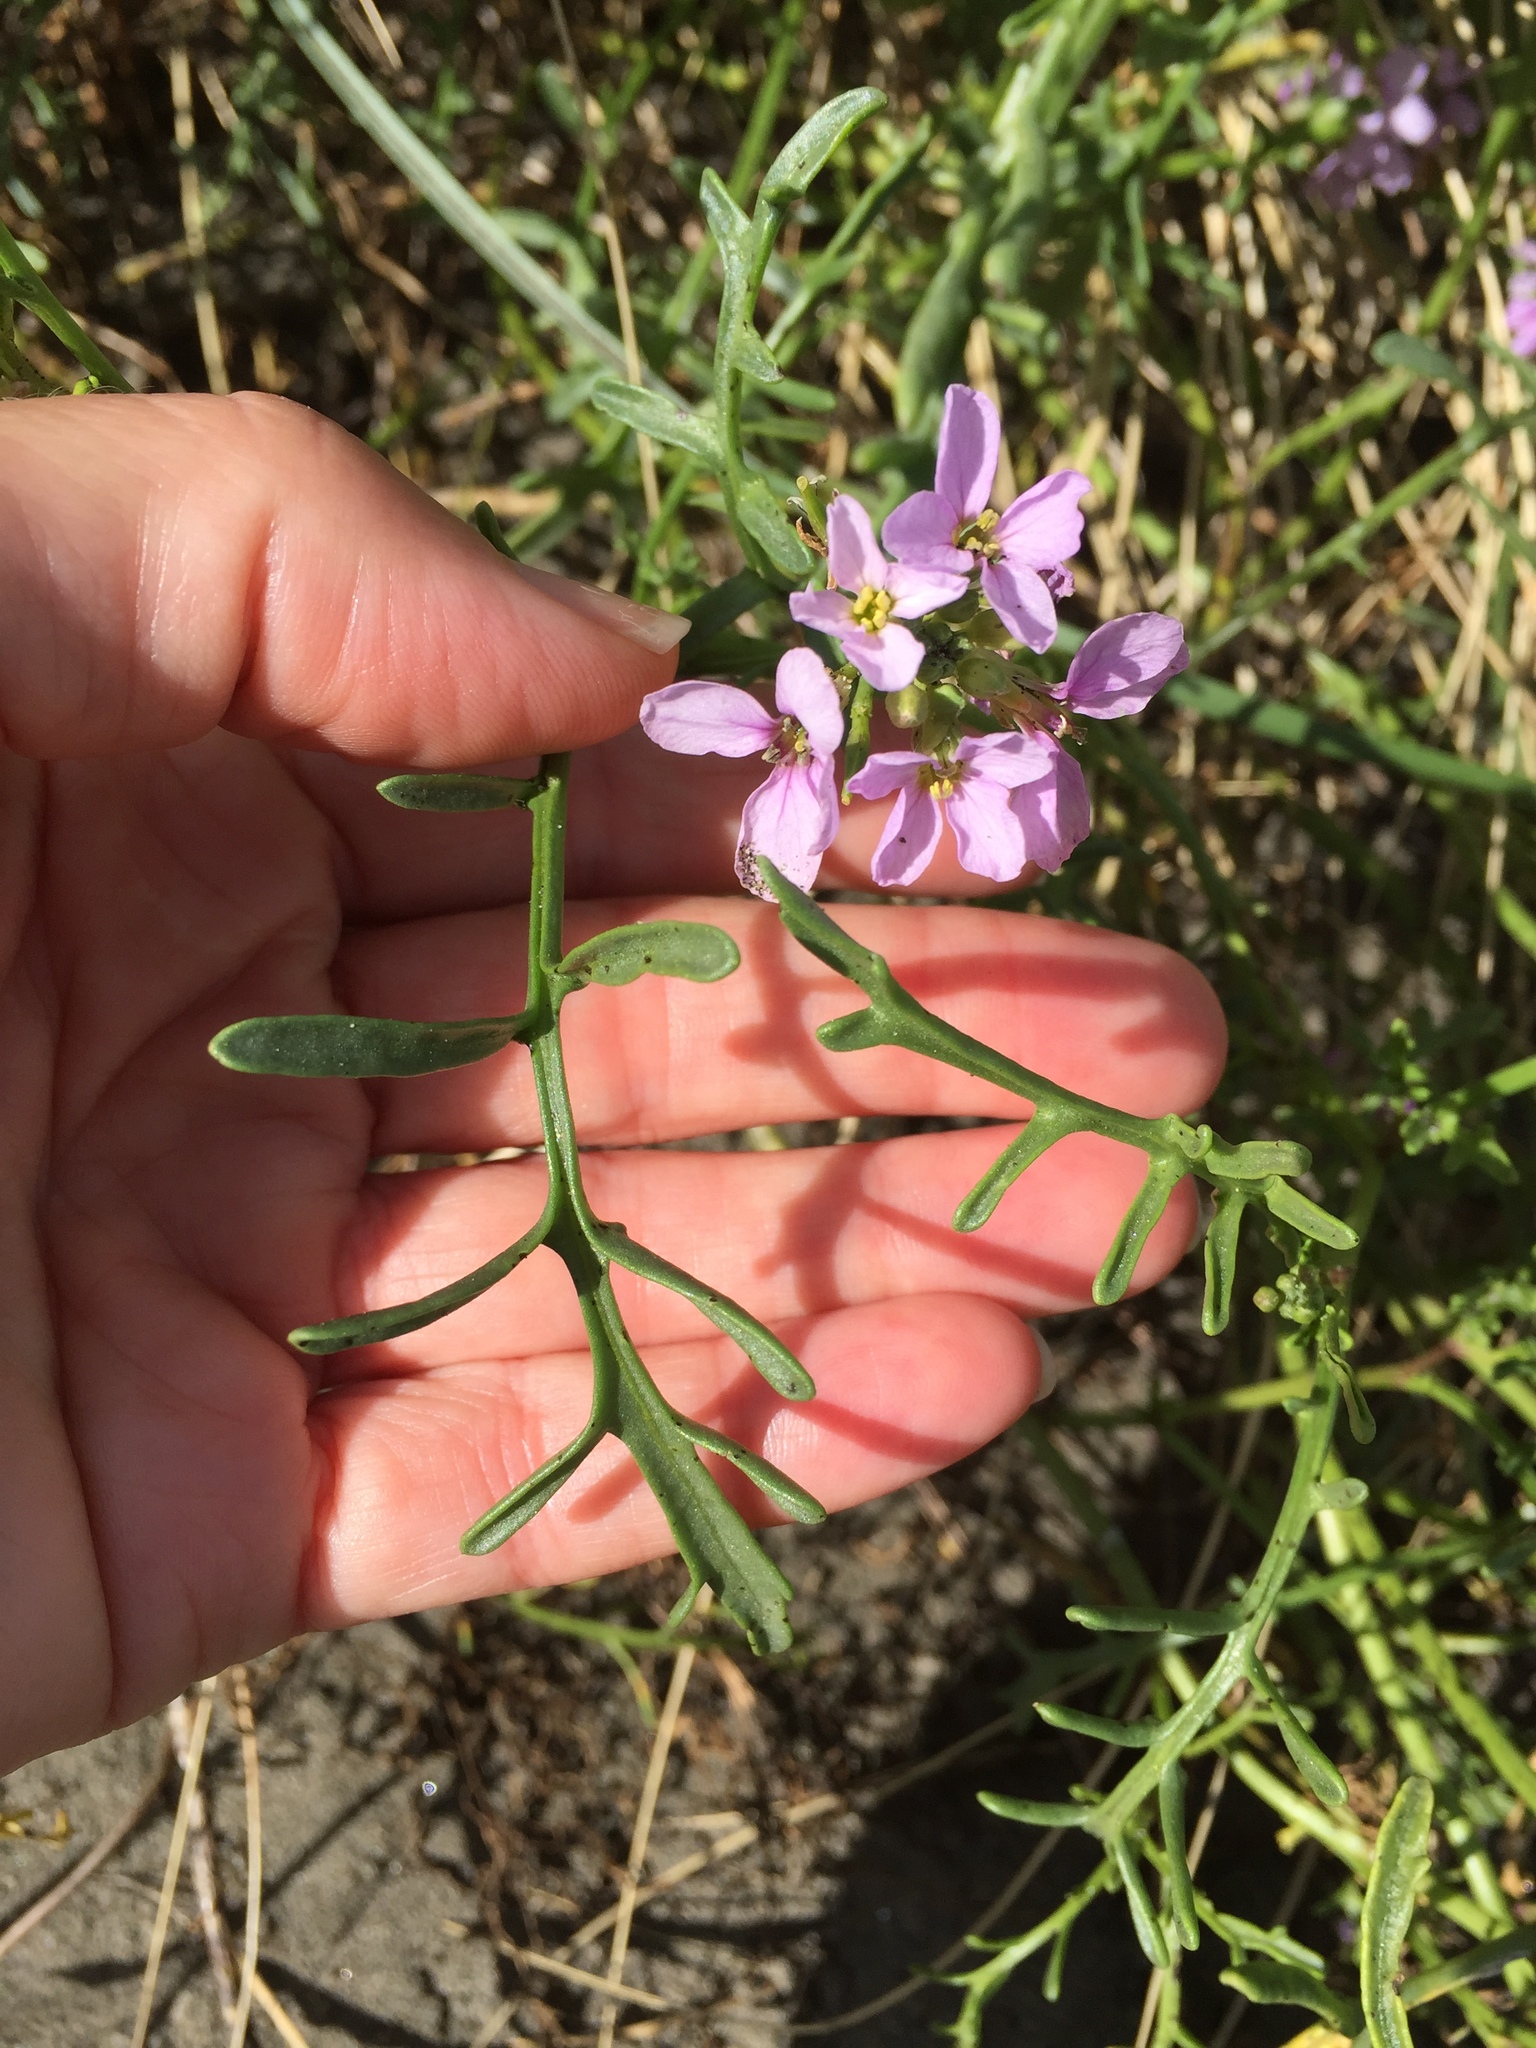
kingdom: Plantae
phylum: Tracheophyta
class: Magnoliopsida
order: Brassicales
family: Brassicaceae
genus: Cakile
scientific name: Cakile maritima
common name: Sea rocket
